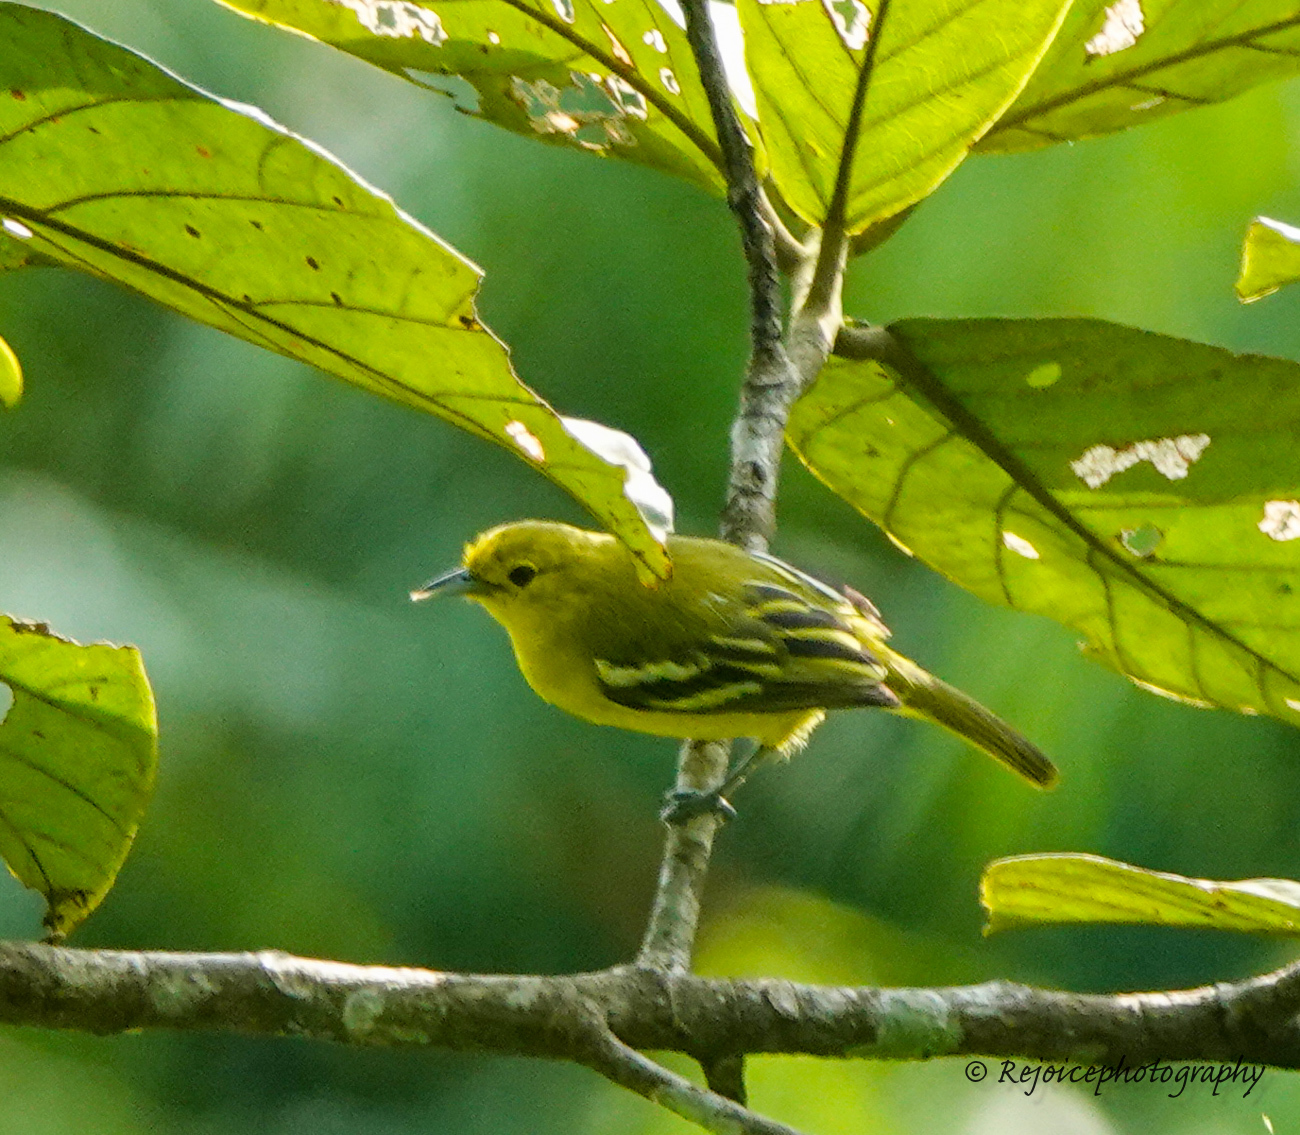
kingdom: Animalia
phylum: Chordata
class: Aves
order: Passeriformes
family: Aegithinidae
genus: Aegithina
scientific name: Aegithina tiphia
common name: Common iora
